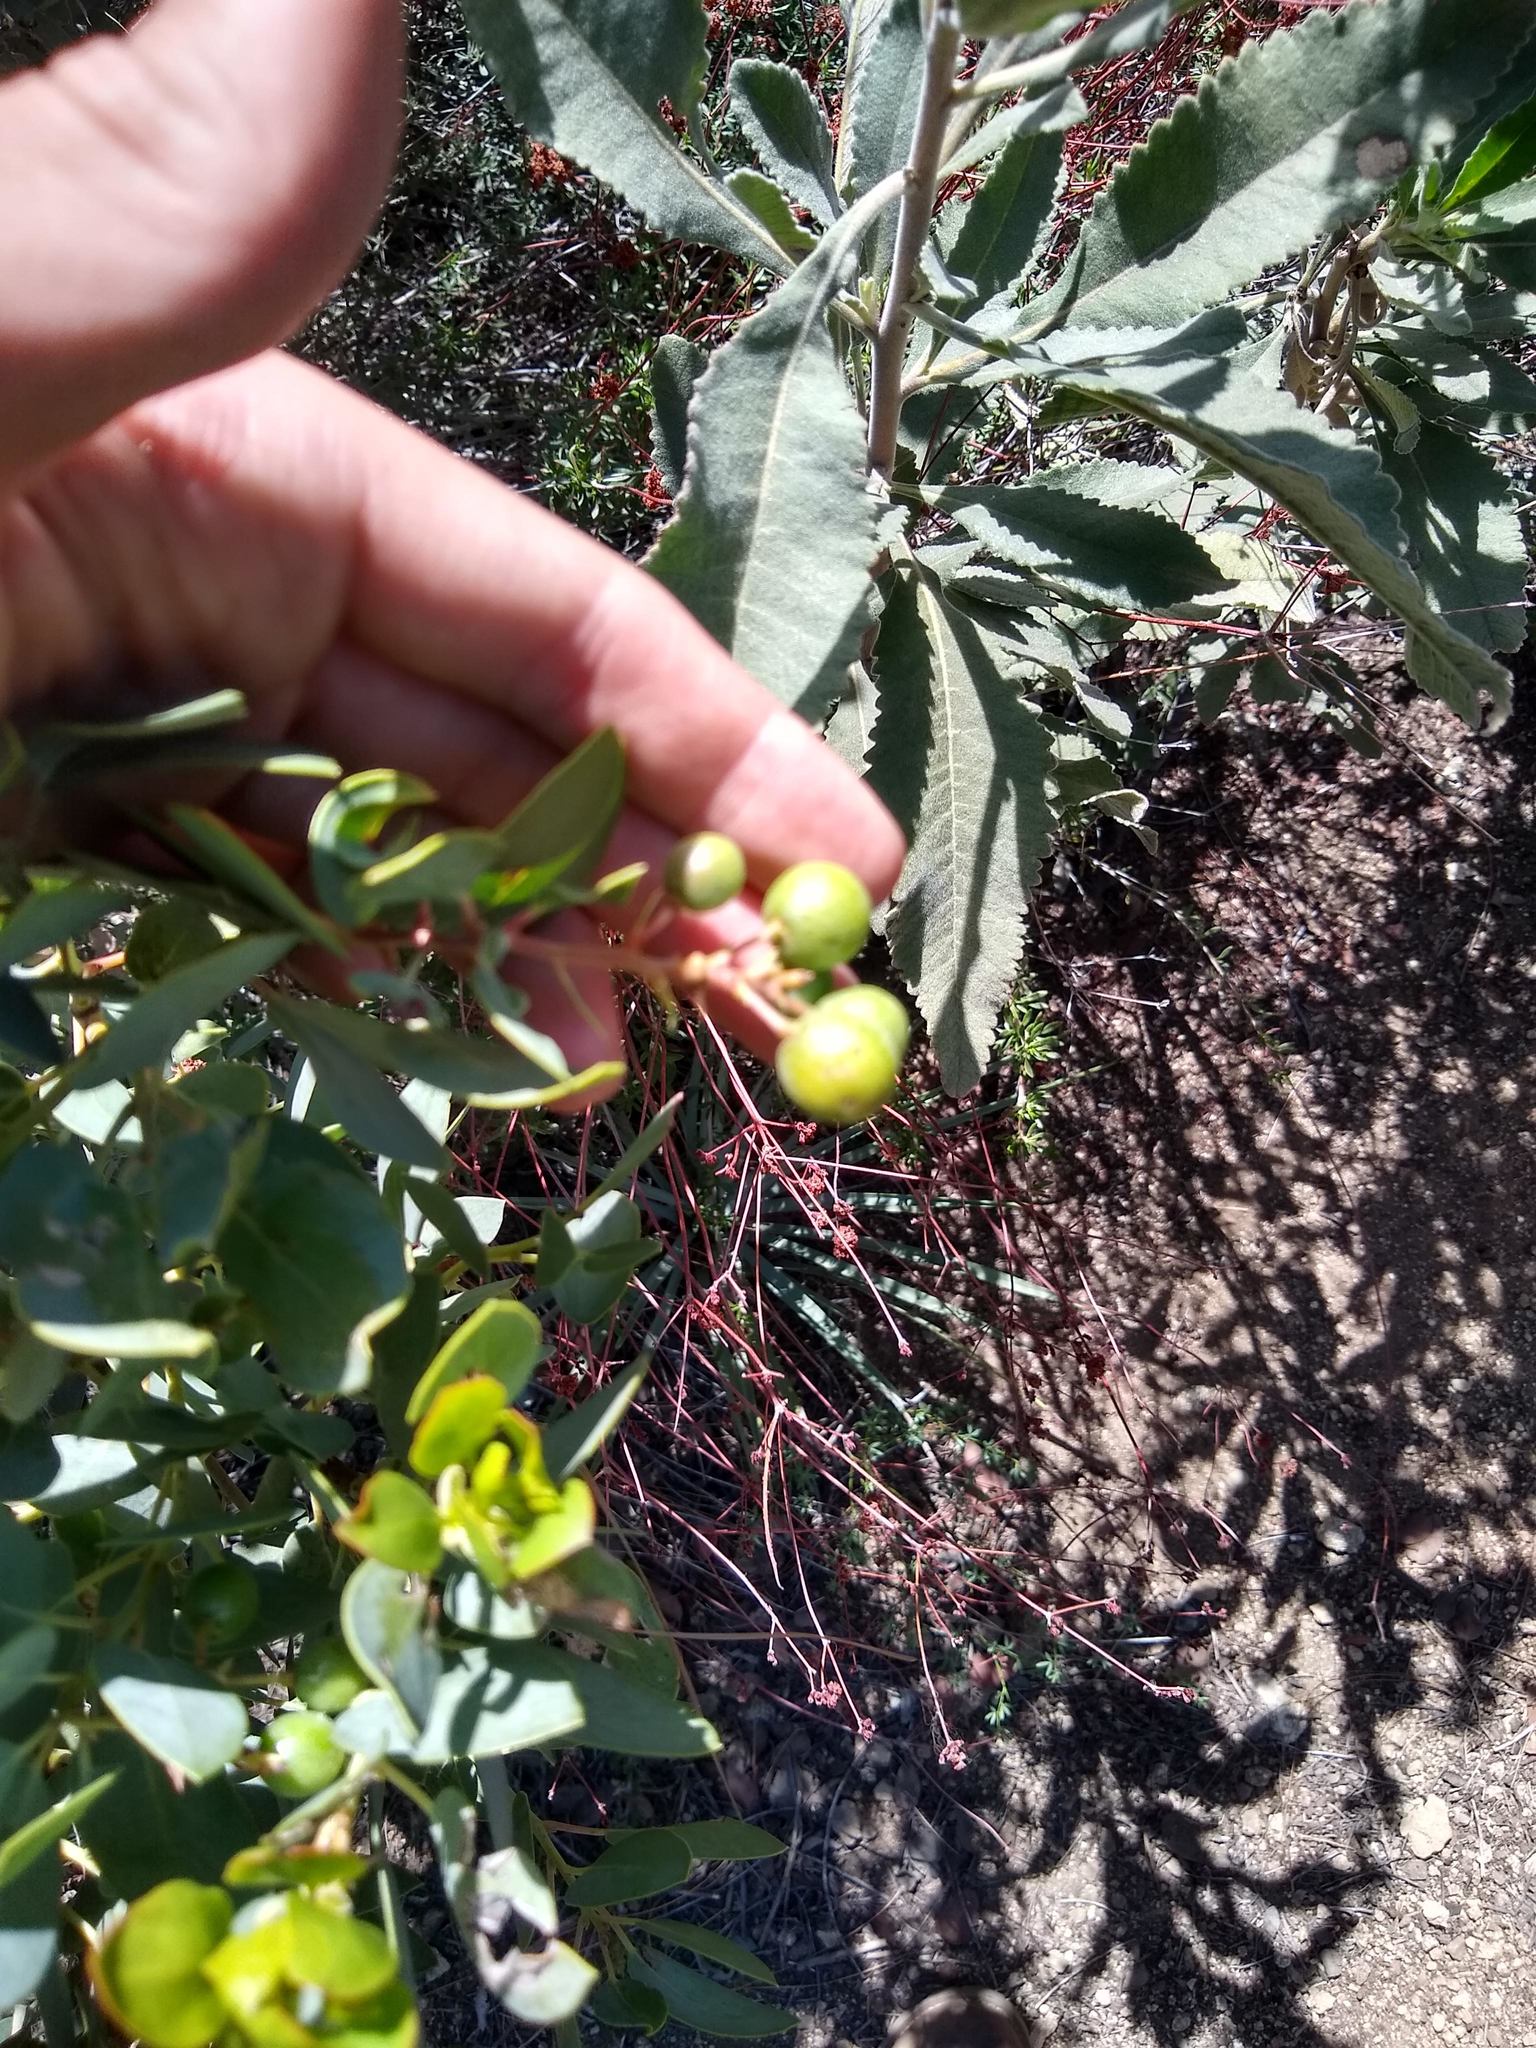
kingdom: Plantae
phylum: Tracheophyta
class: Magnoliopsida
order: Ericales
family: Ericaceae
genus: Arctostaphylos
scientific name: Arctostaphylos glauca
